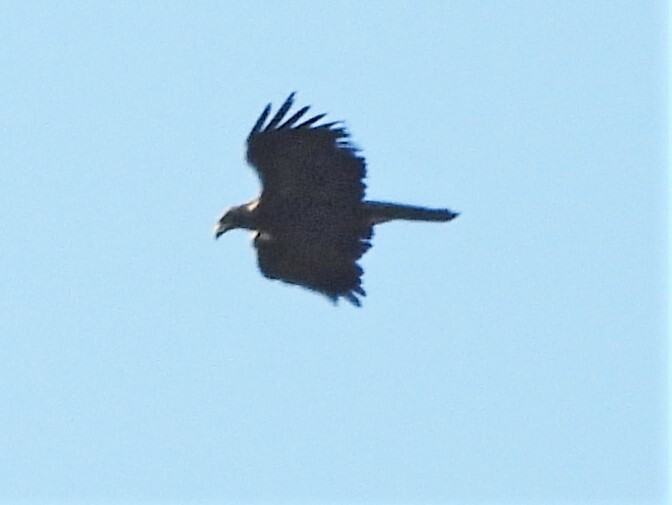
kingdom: Animalia
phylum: Chordata
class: Aves
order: Accipitriformes
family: Accipitridae
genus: Aquila
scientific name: Aquila chrysaetos
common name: Golden eagle
